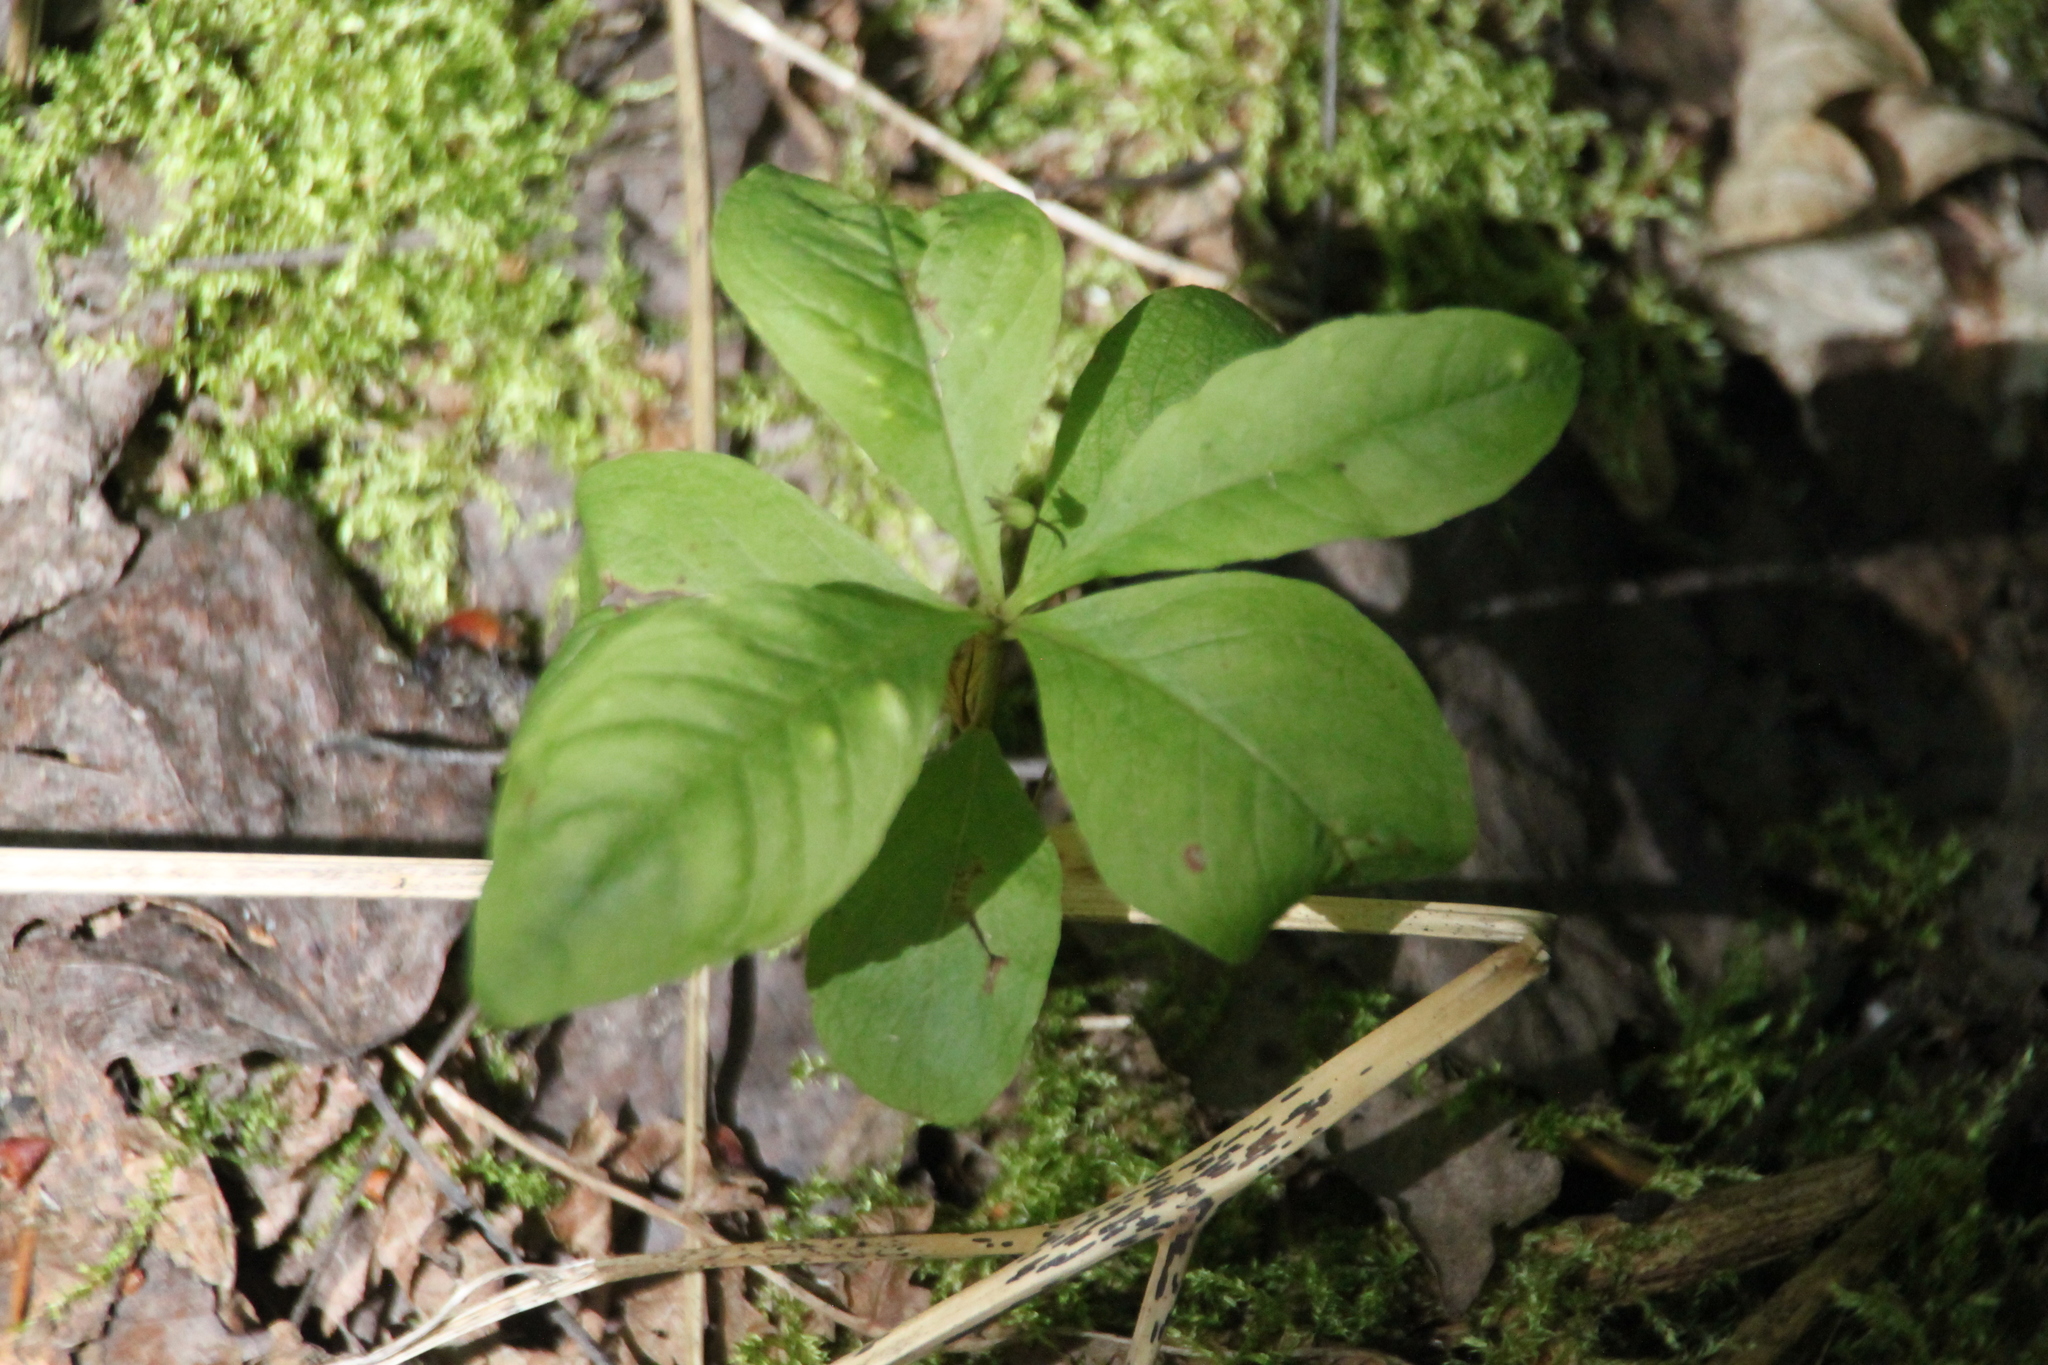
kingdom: Plantae
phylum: Tracheophyta
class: Magnoliopsida
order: Ericales
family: Primulaceae
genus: Lysimachia
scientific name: Lysimachia europaea
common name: Arctic starflower
